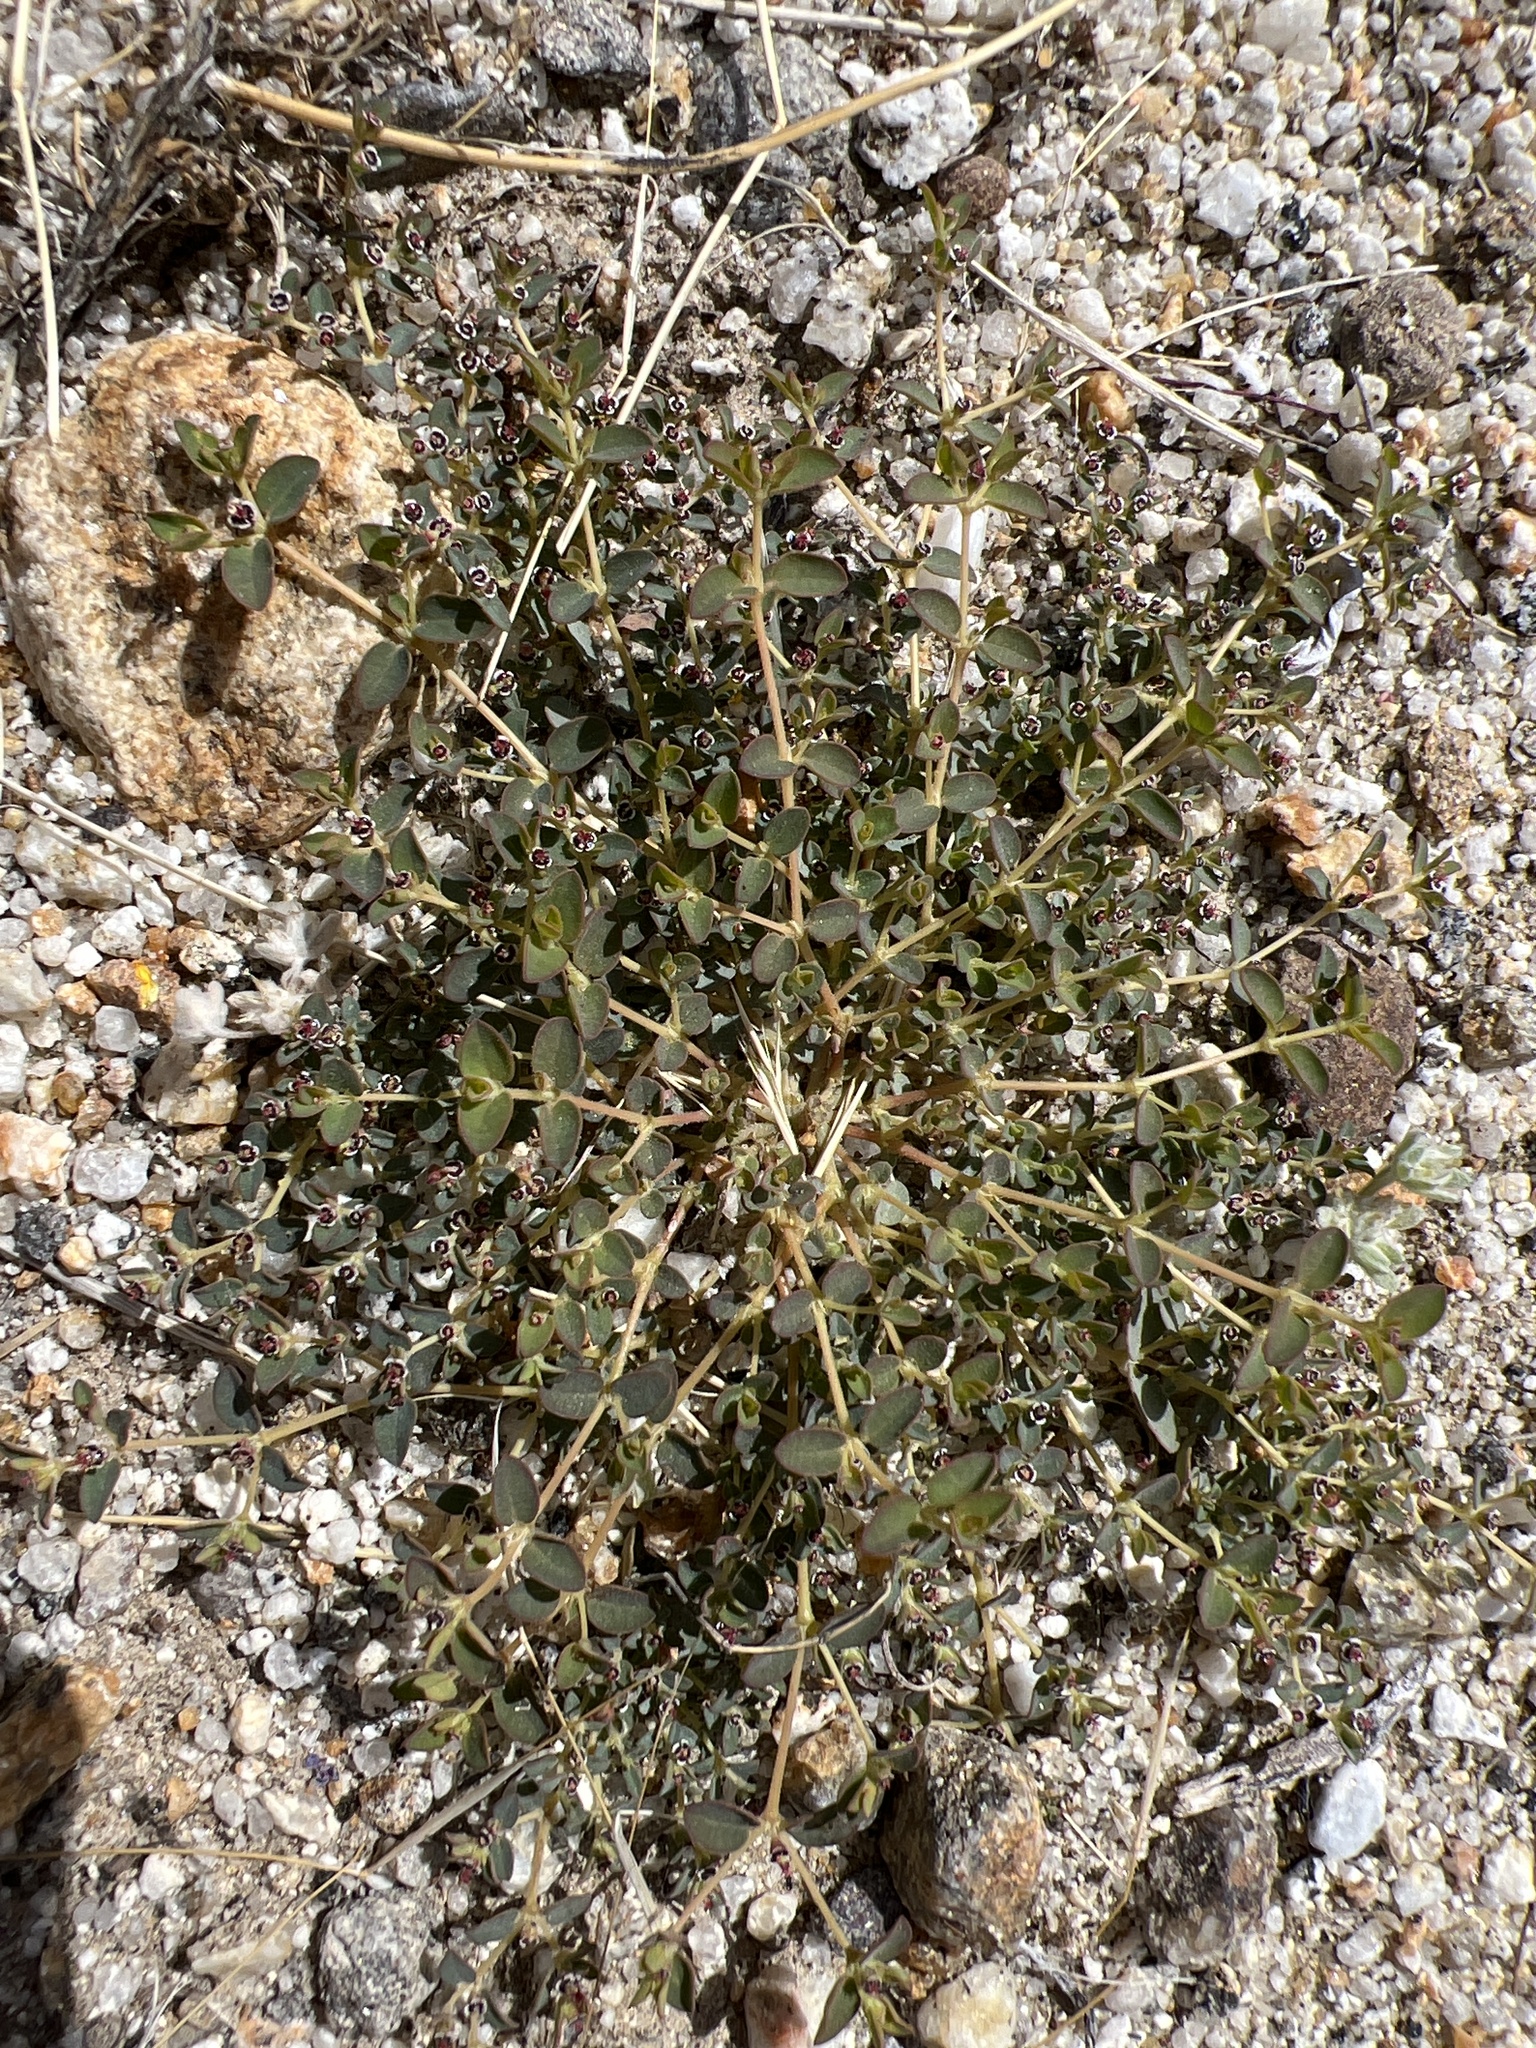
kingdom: Plantae
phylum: Tracheophyta
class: Magnoliopsida
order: Malpighiales
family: Euphorbiaceae
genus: Euphorbia
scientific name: Euphorbia polycarpa
